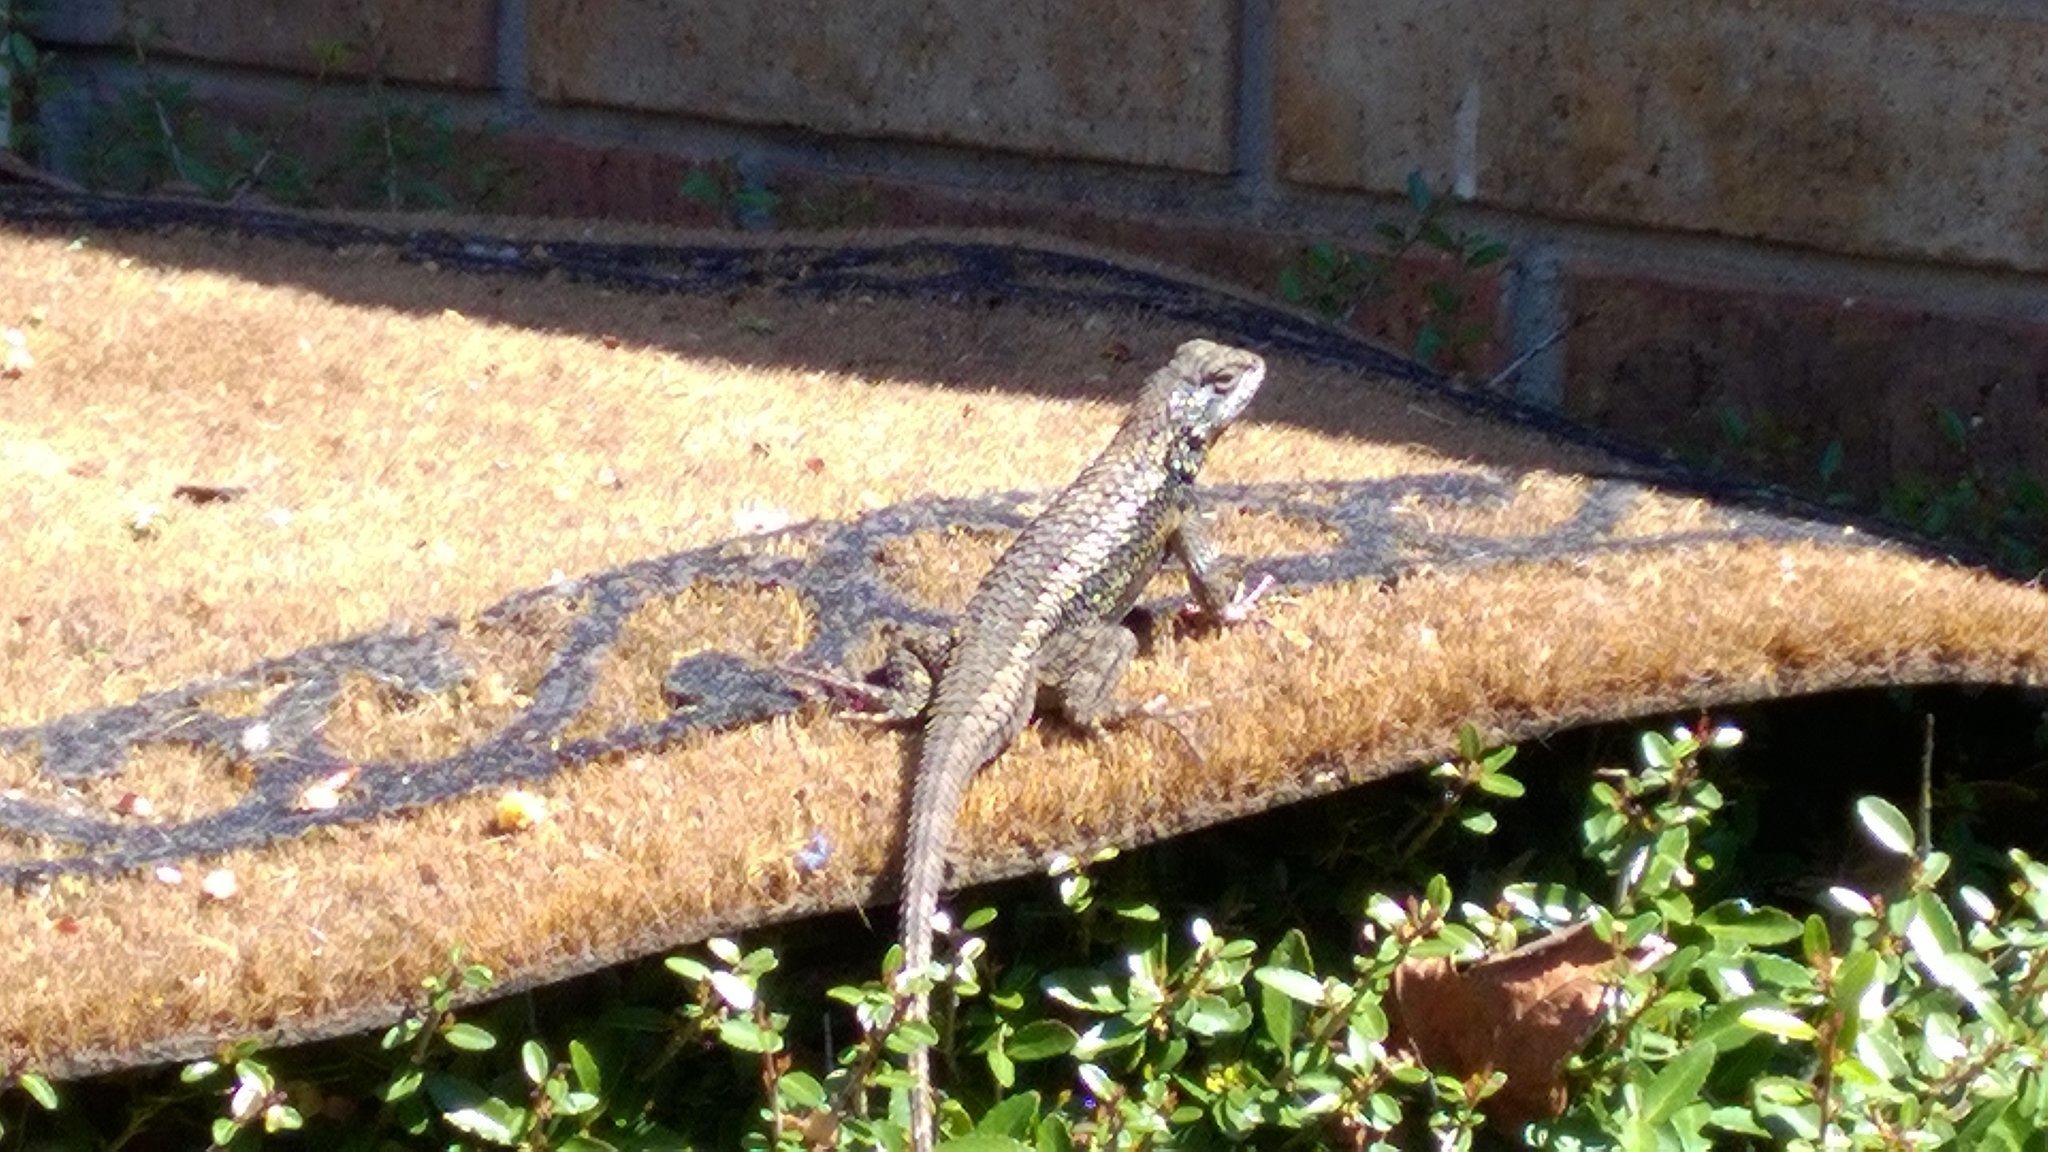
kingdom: Animalia
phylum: Chordata
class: Squamata
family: Phrynosomatidae
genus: Sceloporus
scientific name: Sceloporus olivaceus
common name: Texas spiny lizard
